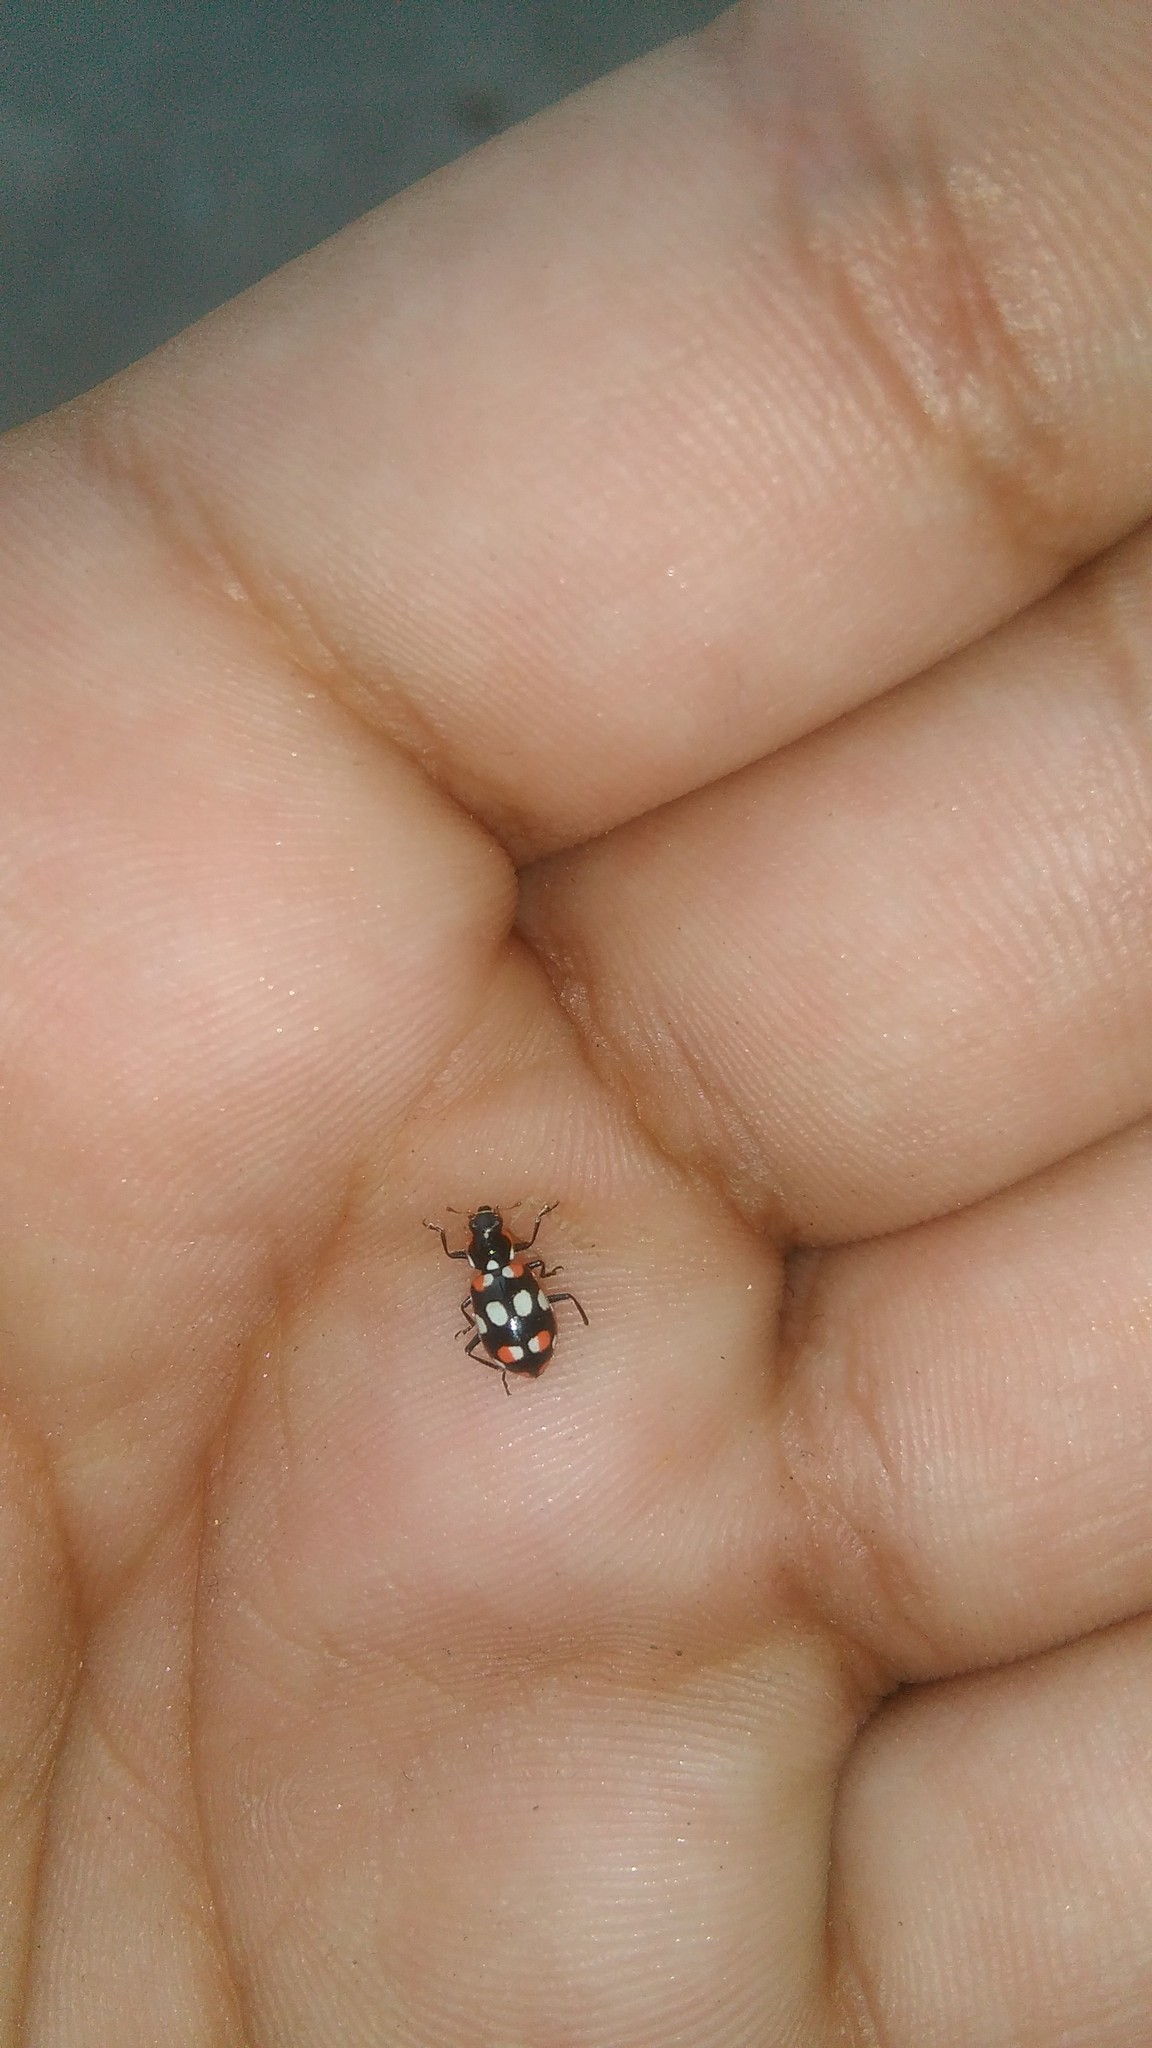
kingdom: Animalia
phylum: Arthropoda
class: Insecta
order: Coleoptera
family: Coccinellidae
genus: Eriopis
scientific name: Eriopis connexa
